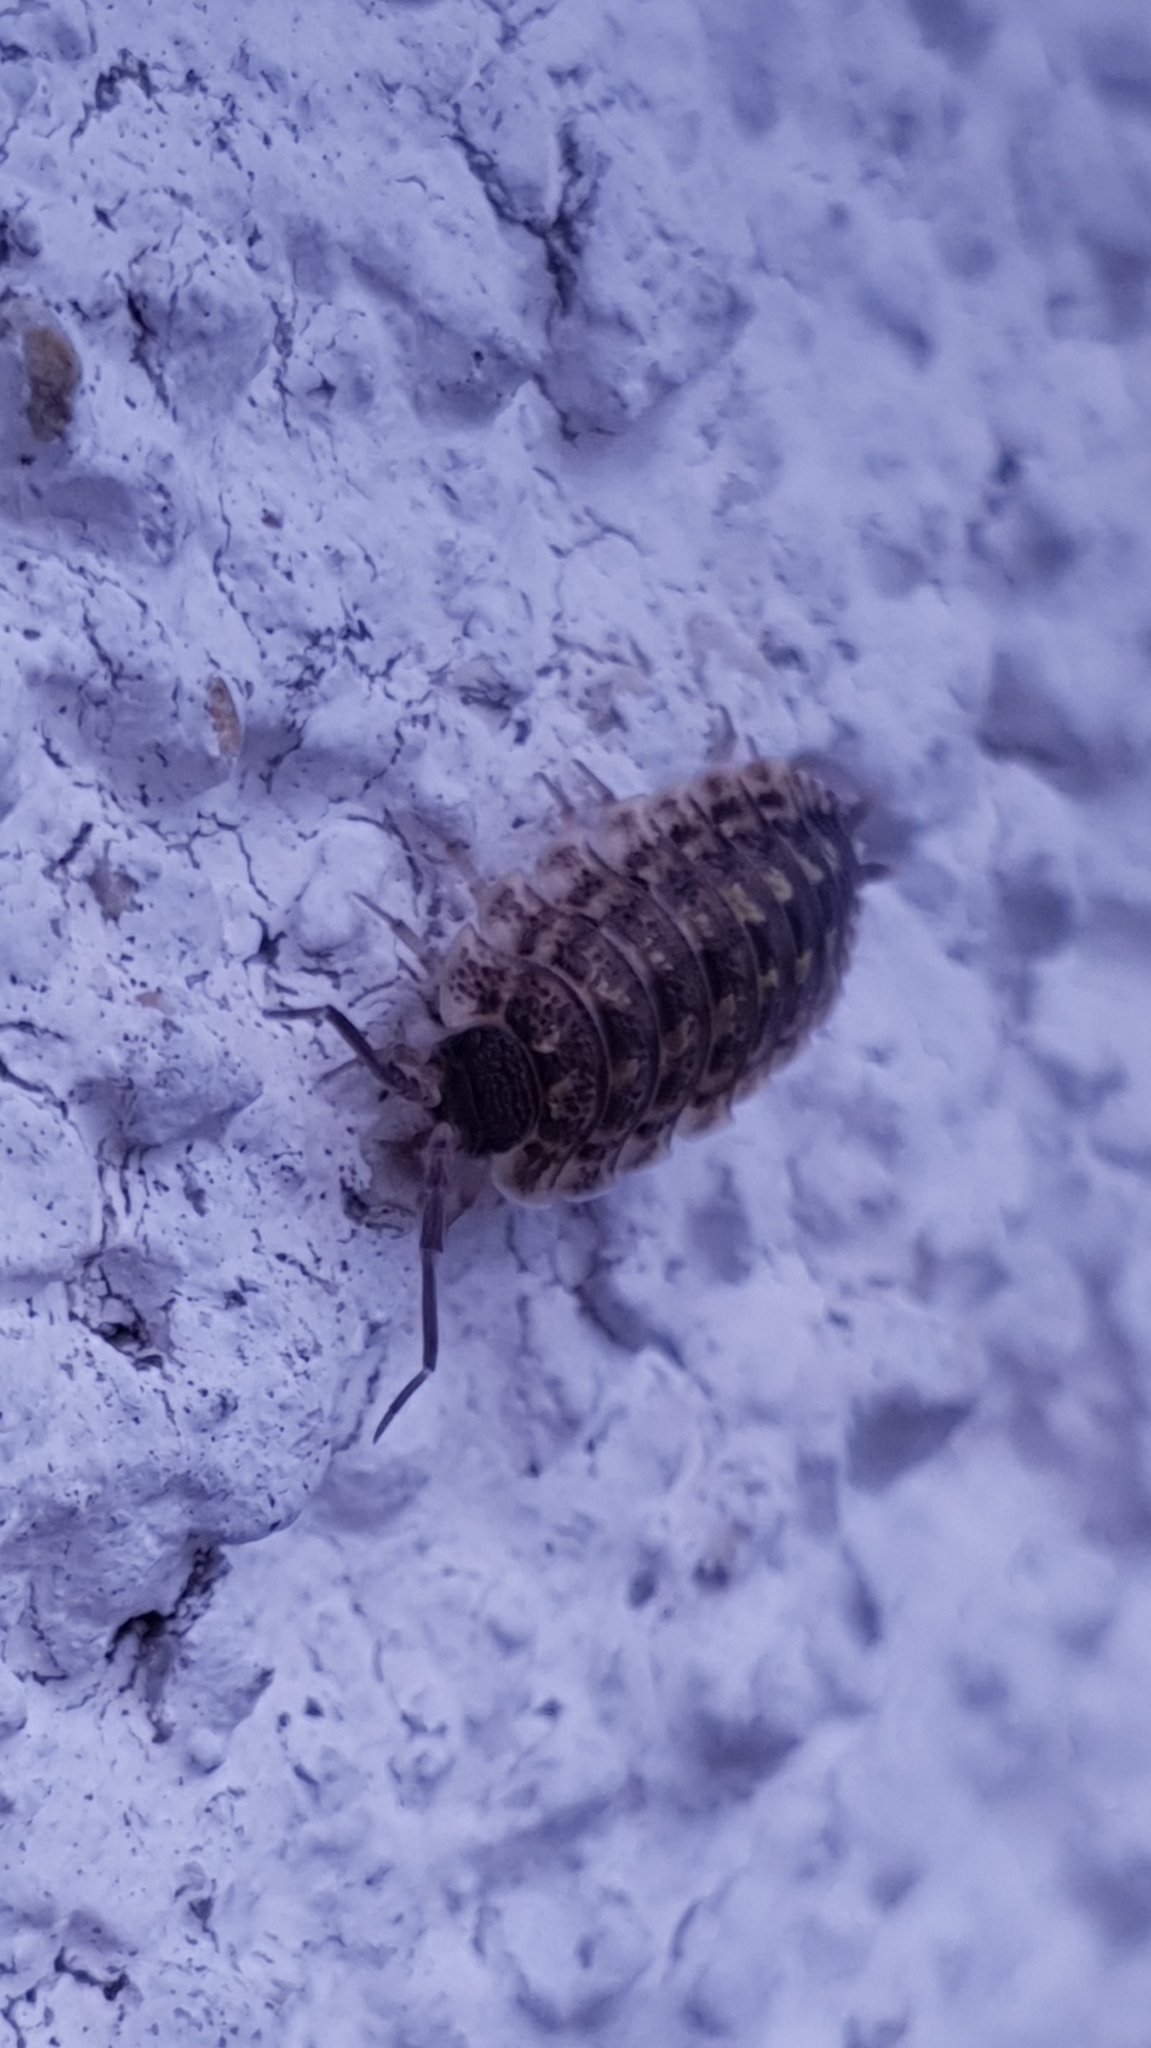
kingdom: Animalia
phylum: Arthropoda
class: Malacostraca
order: Isopoda
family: Porcellionidae
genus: Porcellio
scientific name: Porcellio spinicornis
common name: Painted woodlouse
